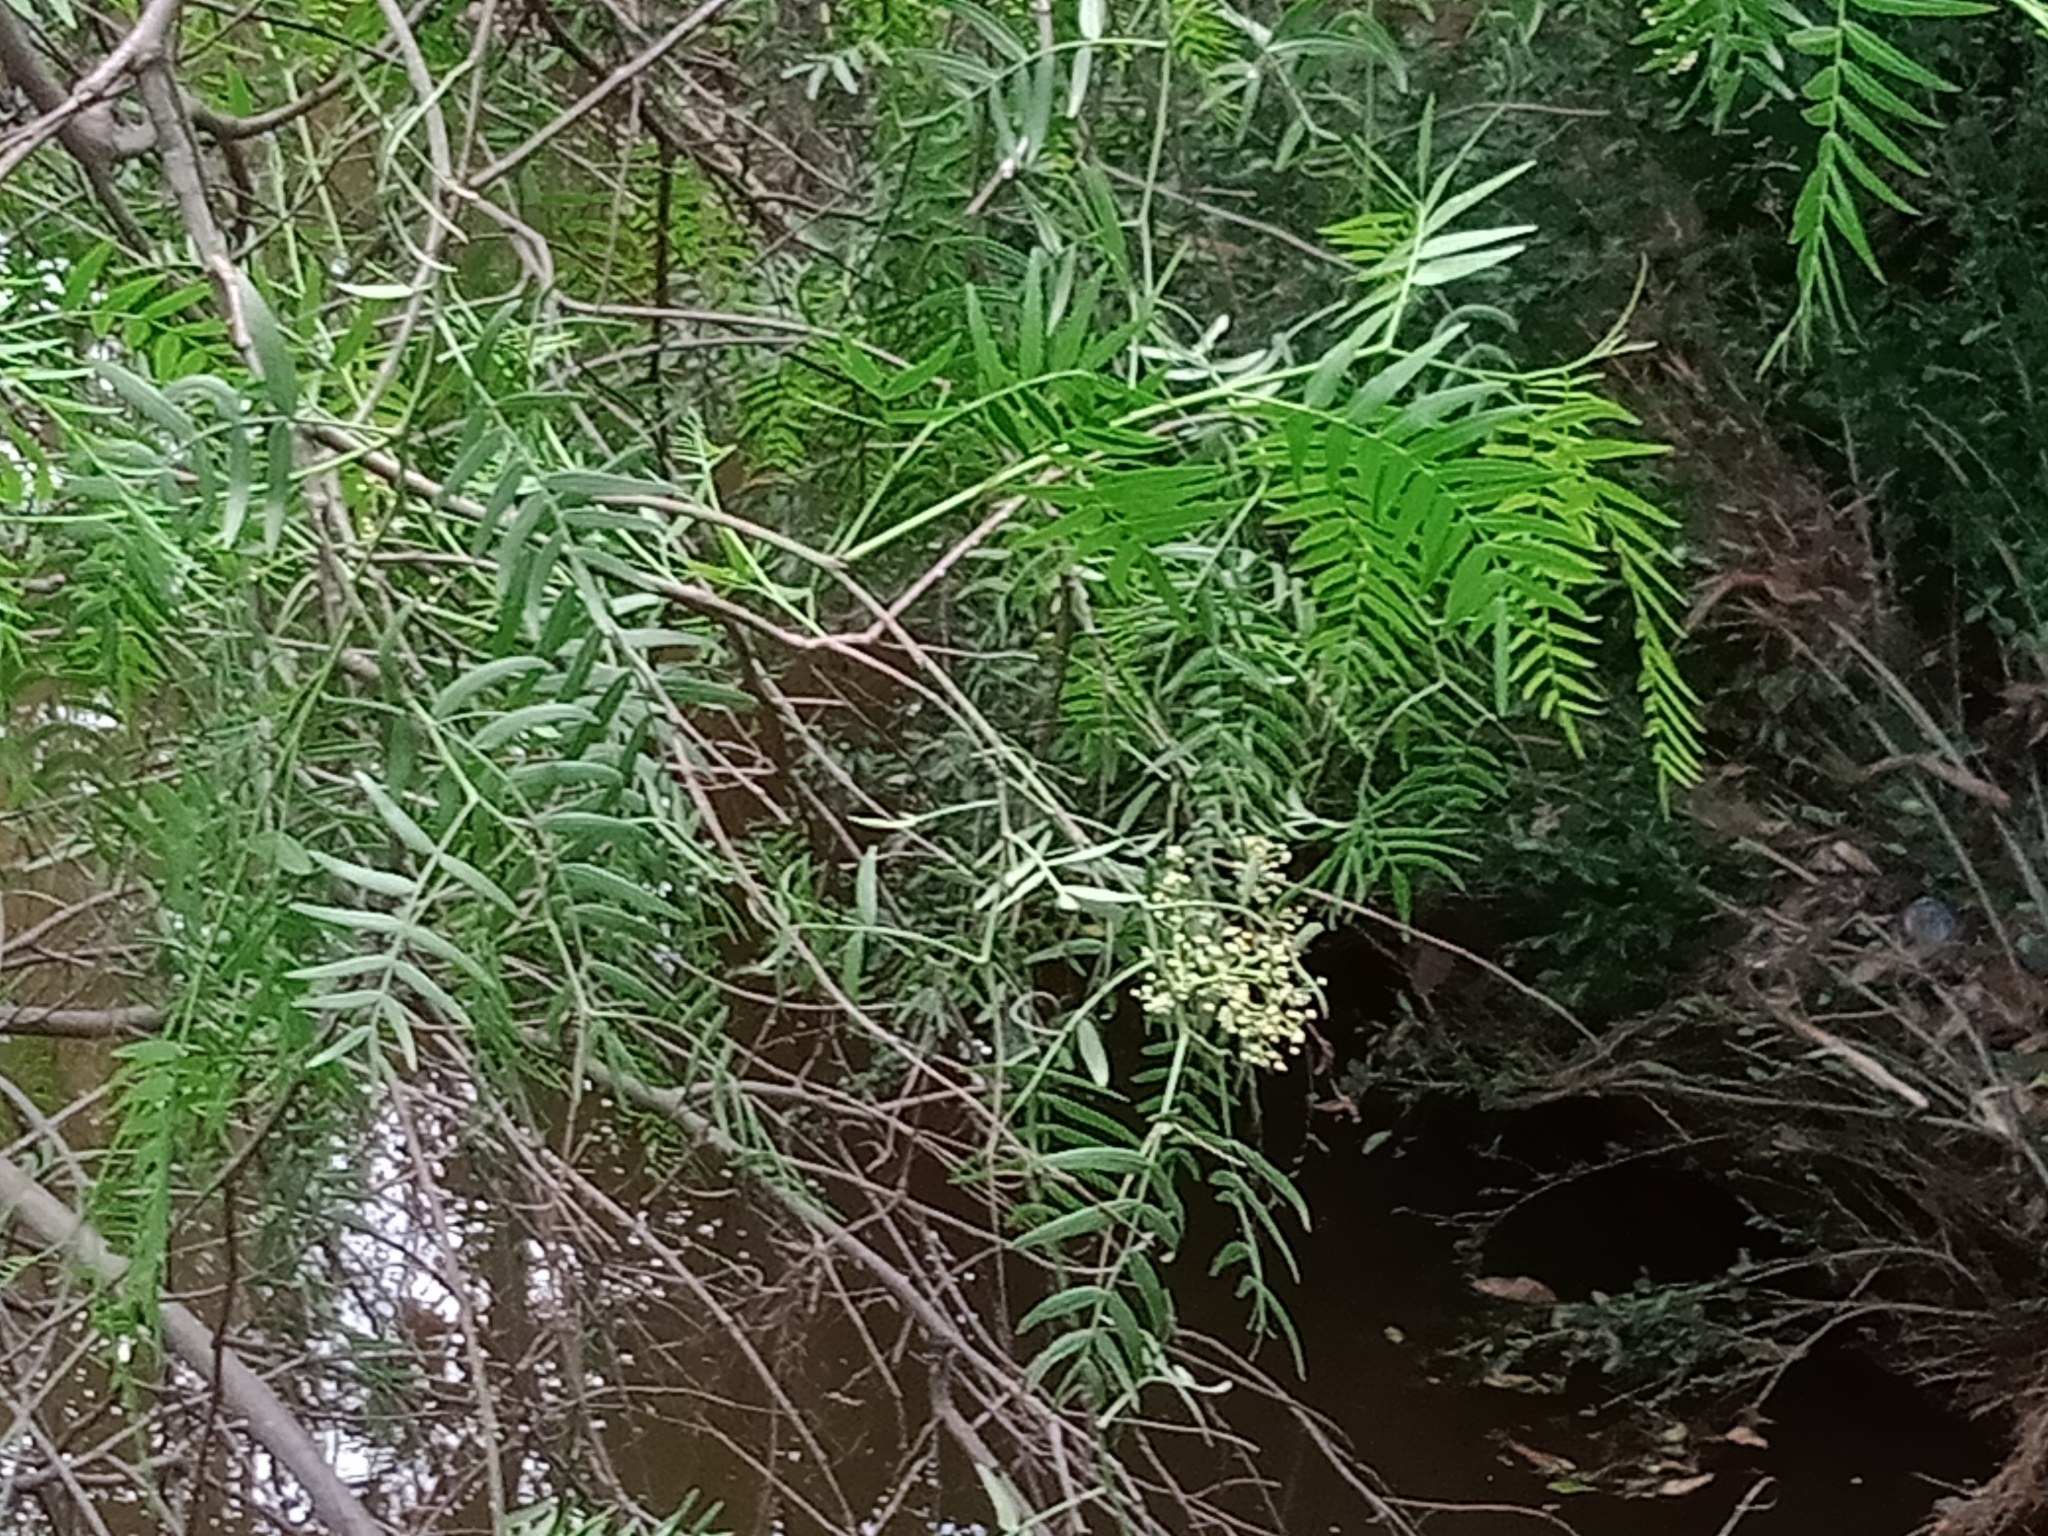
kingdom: Plantae
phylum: Tracheophyta
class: Magnoliopsida
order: Sapindales
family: Anacardiaceae
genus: Schinus
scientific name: Schinus molle
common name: Peruvian peppertree
